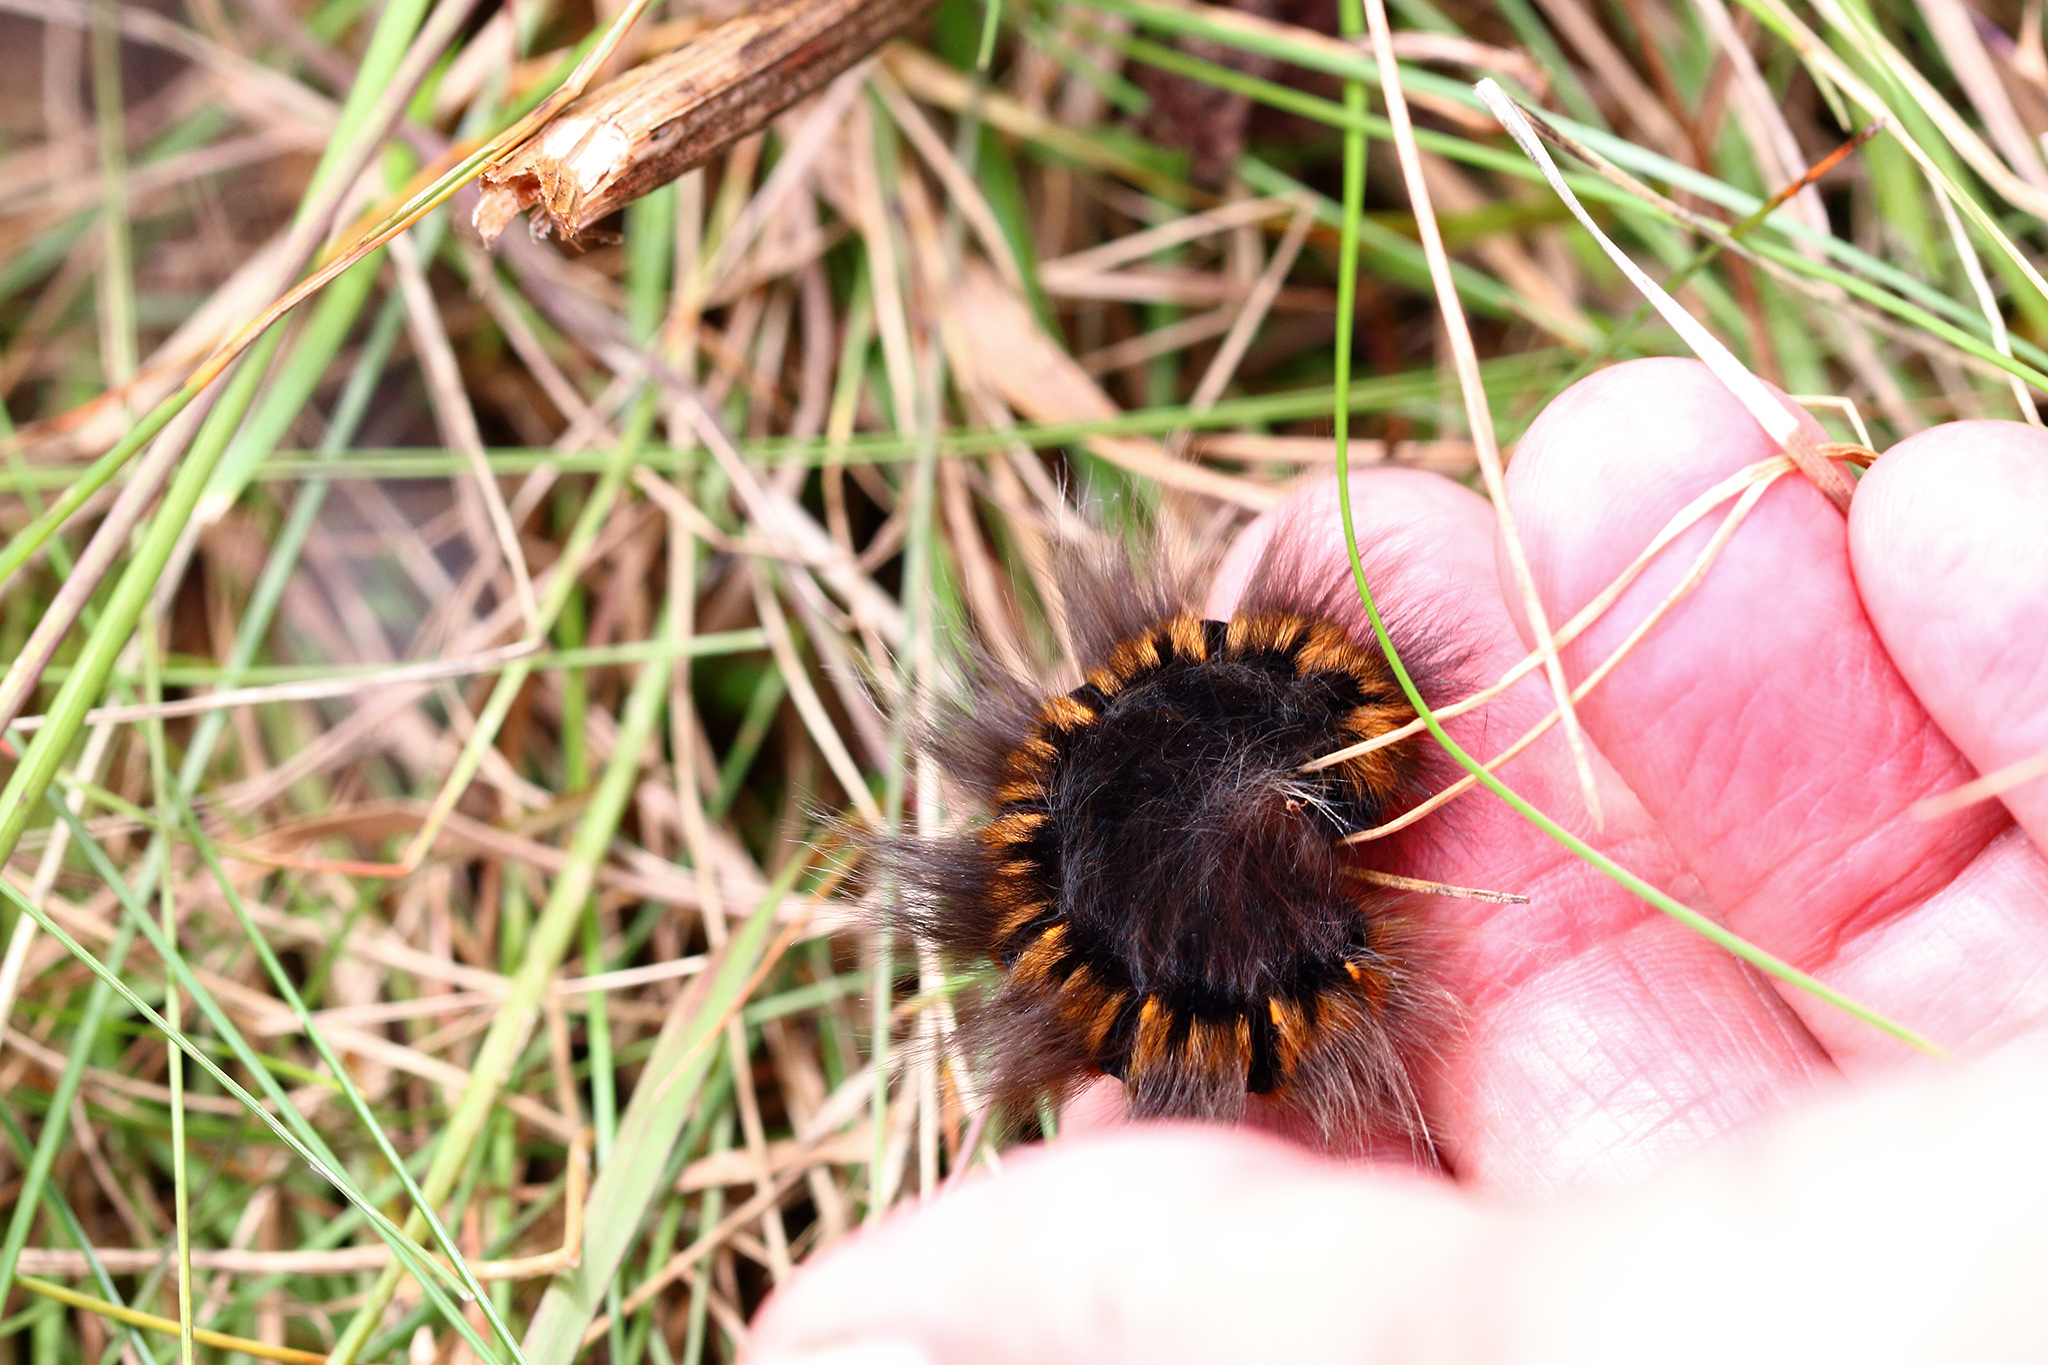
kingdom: Animalia
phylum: Arthropoda
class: Insecta
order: Lepidoptera
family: Lasiocampidae
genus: Macrothylacia
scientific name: Macrothylacia rubi
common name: Fox moth
